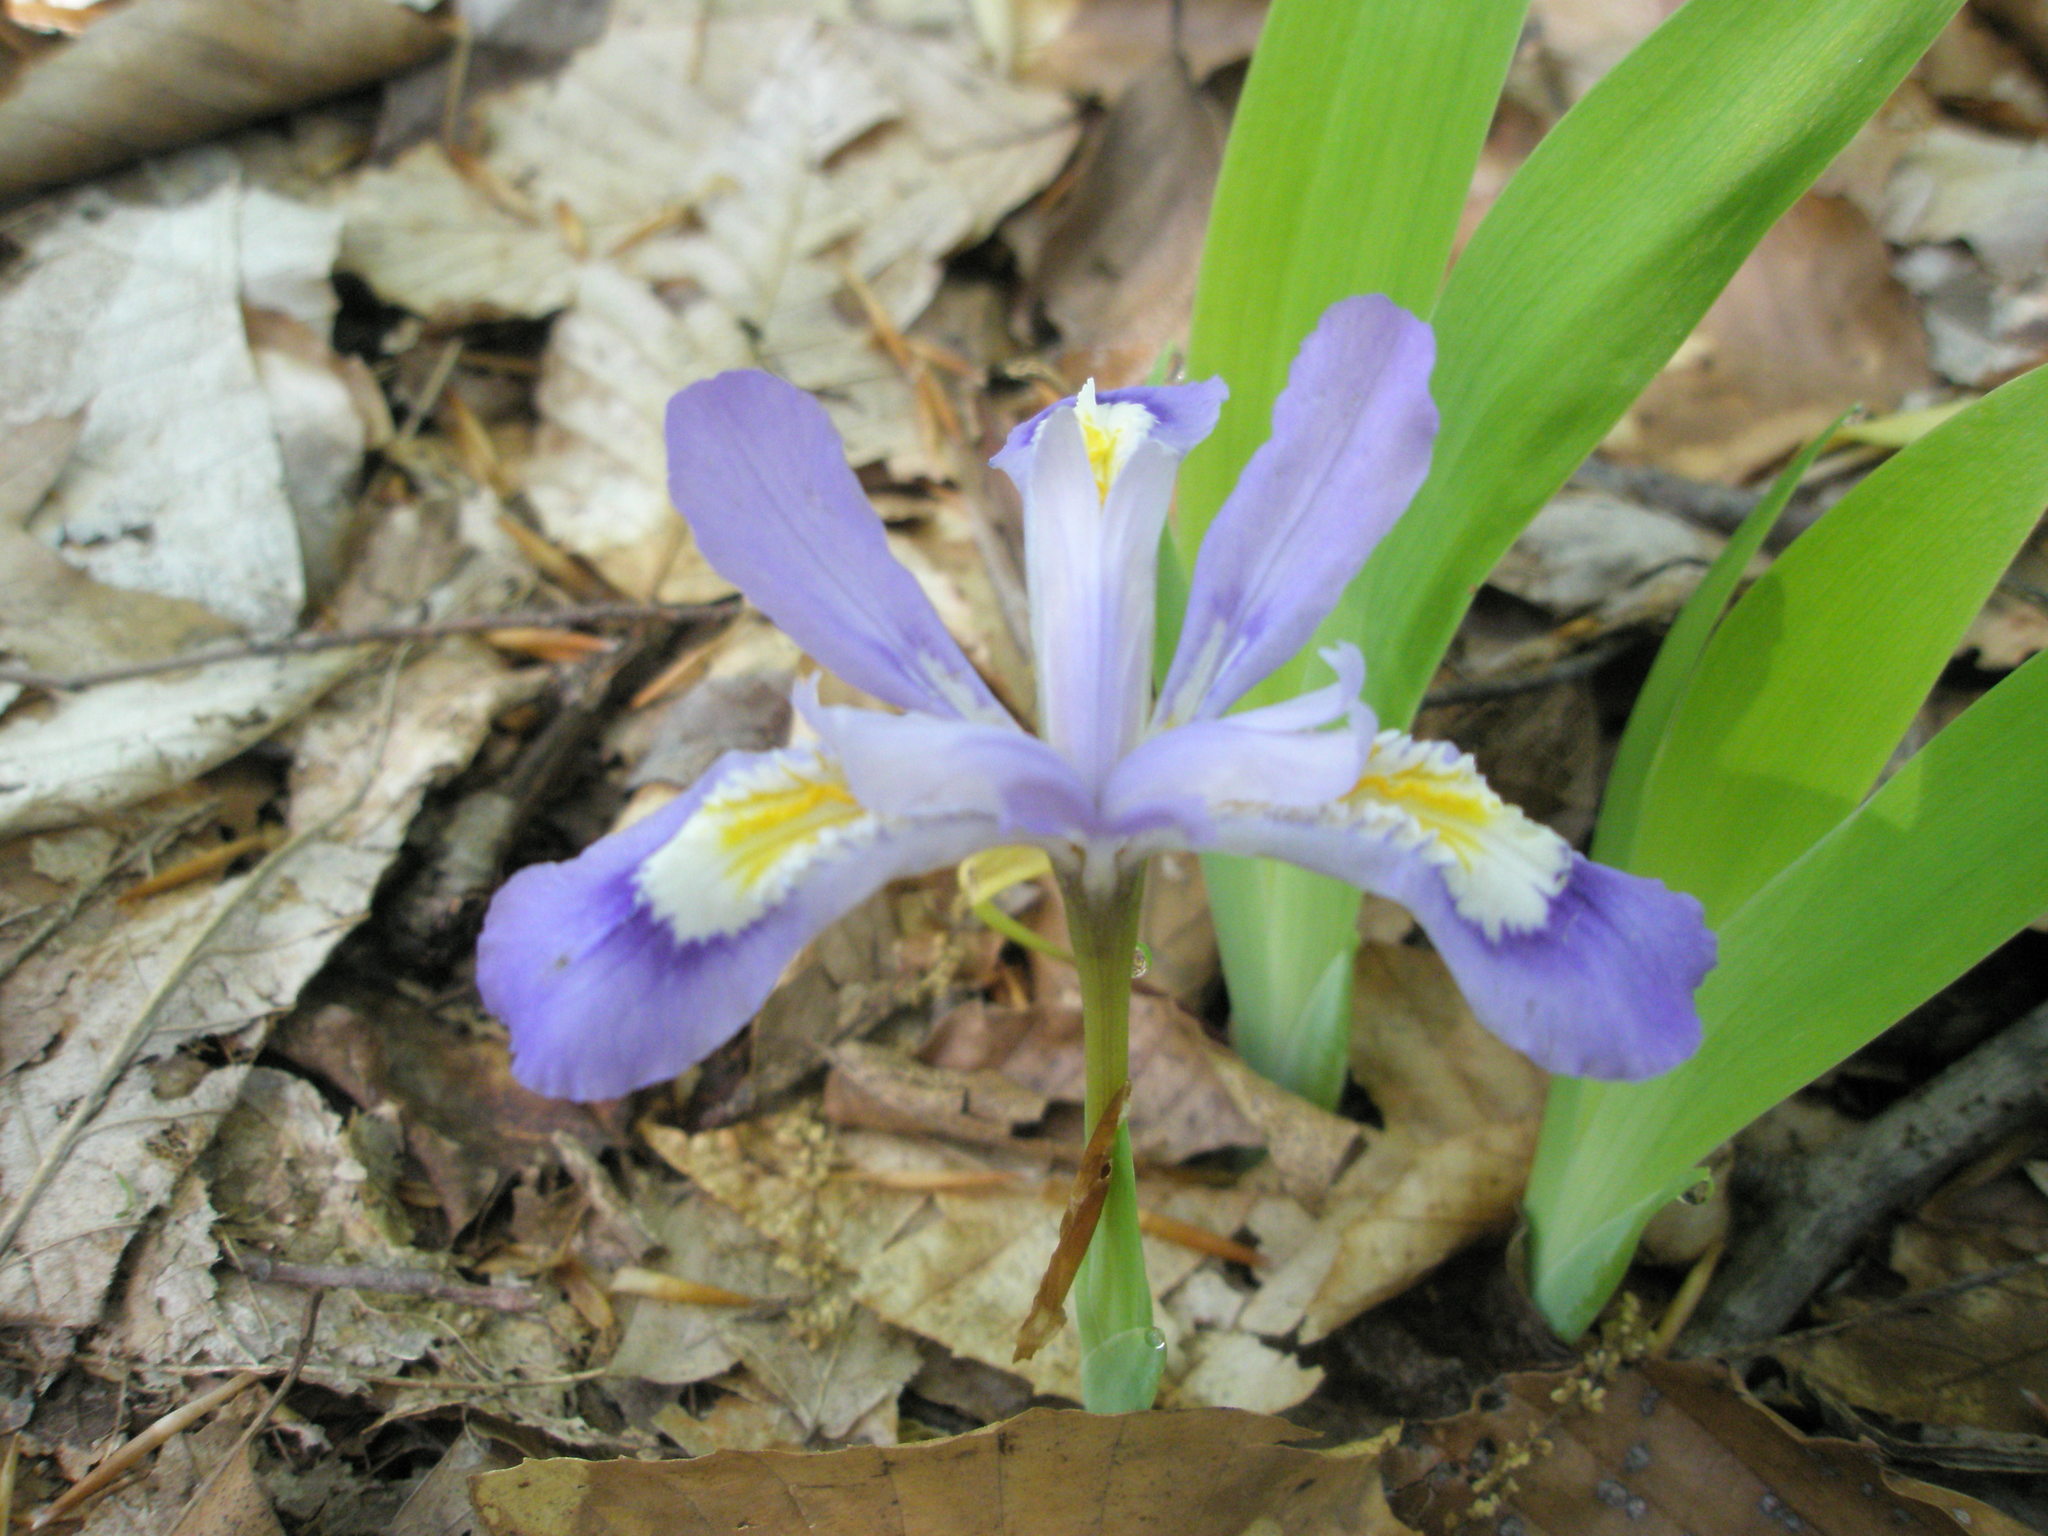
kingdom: Plantae
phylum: Tracheophyta
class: Liliopsida
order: Asparagales
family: Iridaceae
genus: Iris
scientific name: Iris cristata
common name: Crested iris
